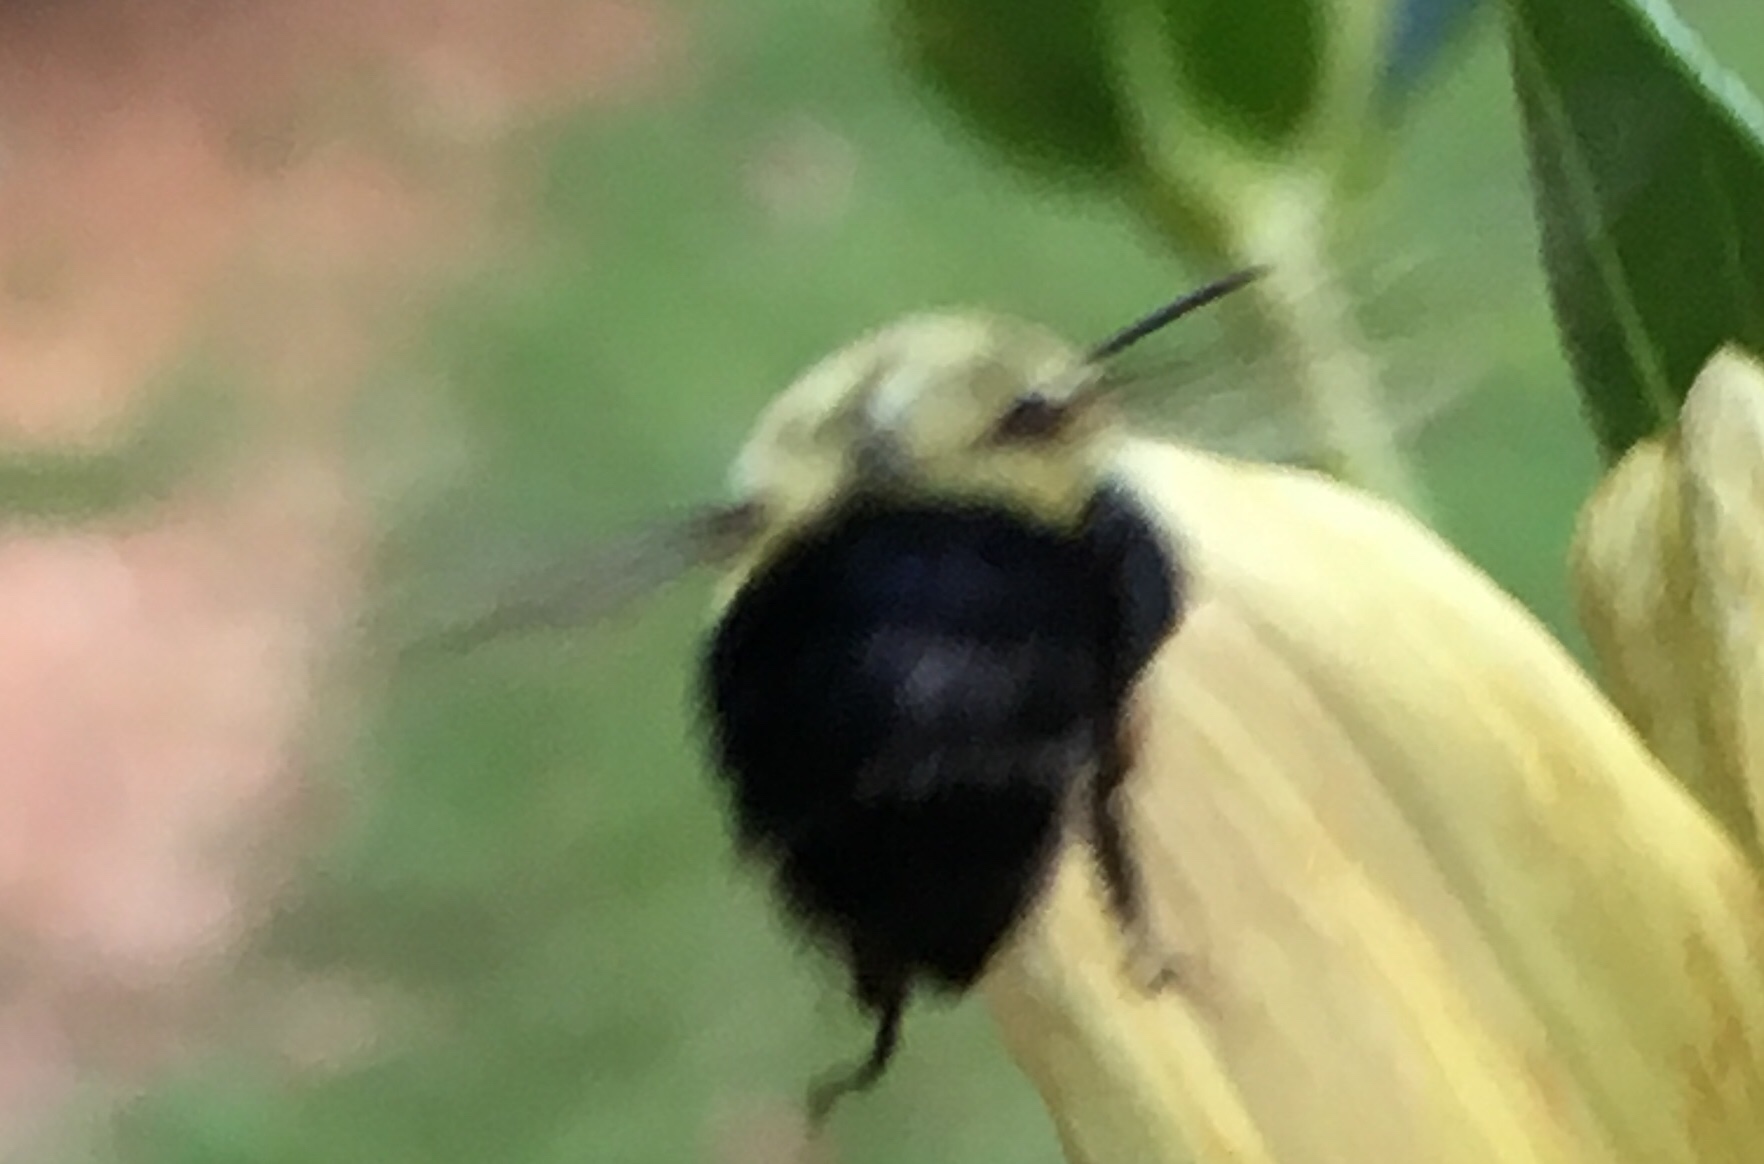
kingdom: Animalia
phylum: Arthropoda
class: Insecta
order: Hymenoptera
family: Apidae
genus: Bombus
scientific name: Bombus impatiens
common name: Common eastern bumble bee
